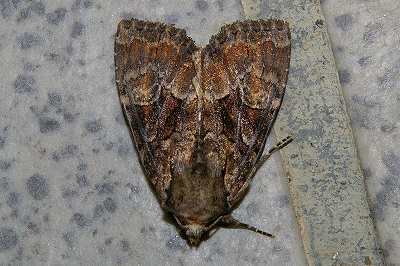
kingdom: Animalia
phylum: Arthropoda
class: Insecta
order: Lepidoptera
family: Noctuidae
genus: Apamea
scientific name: Apamea hampsoni
